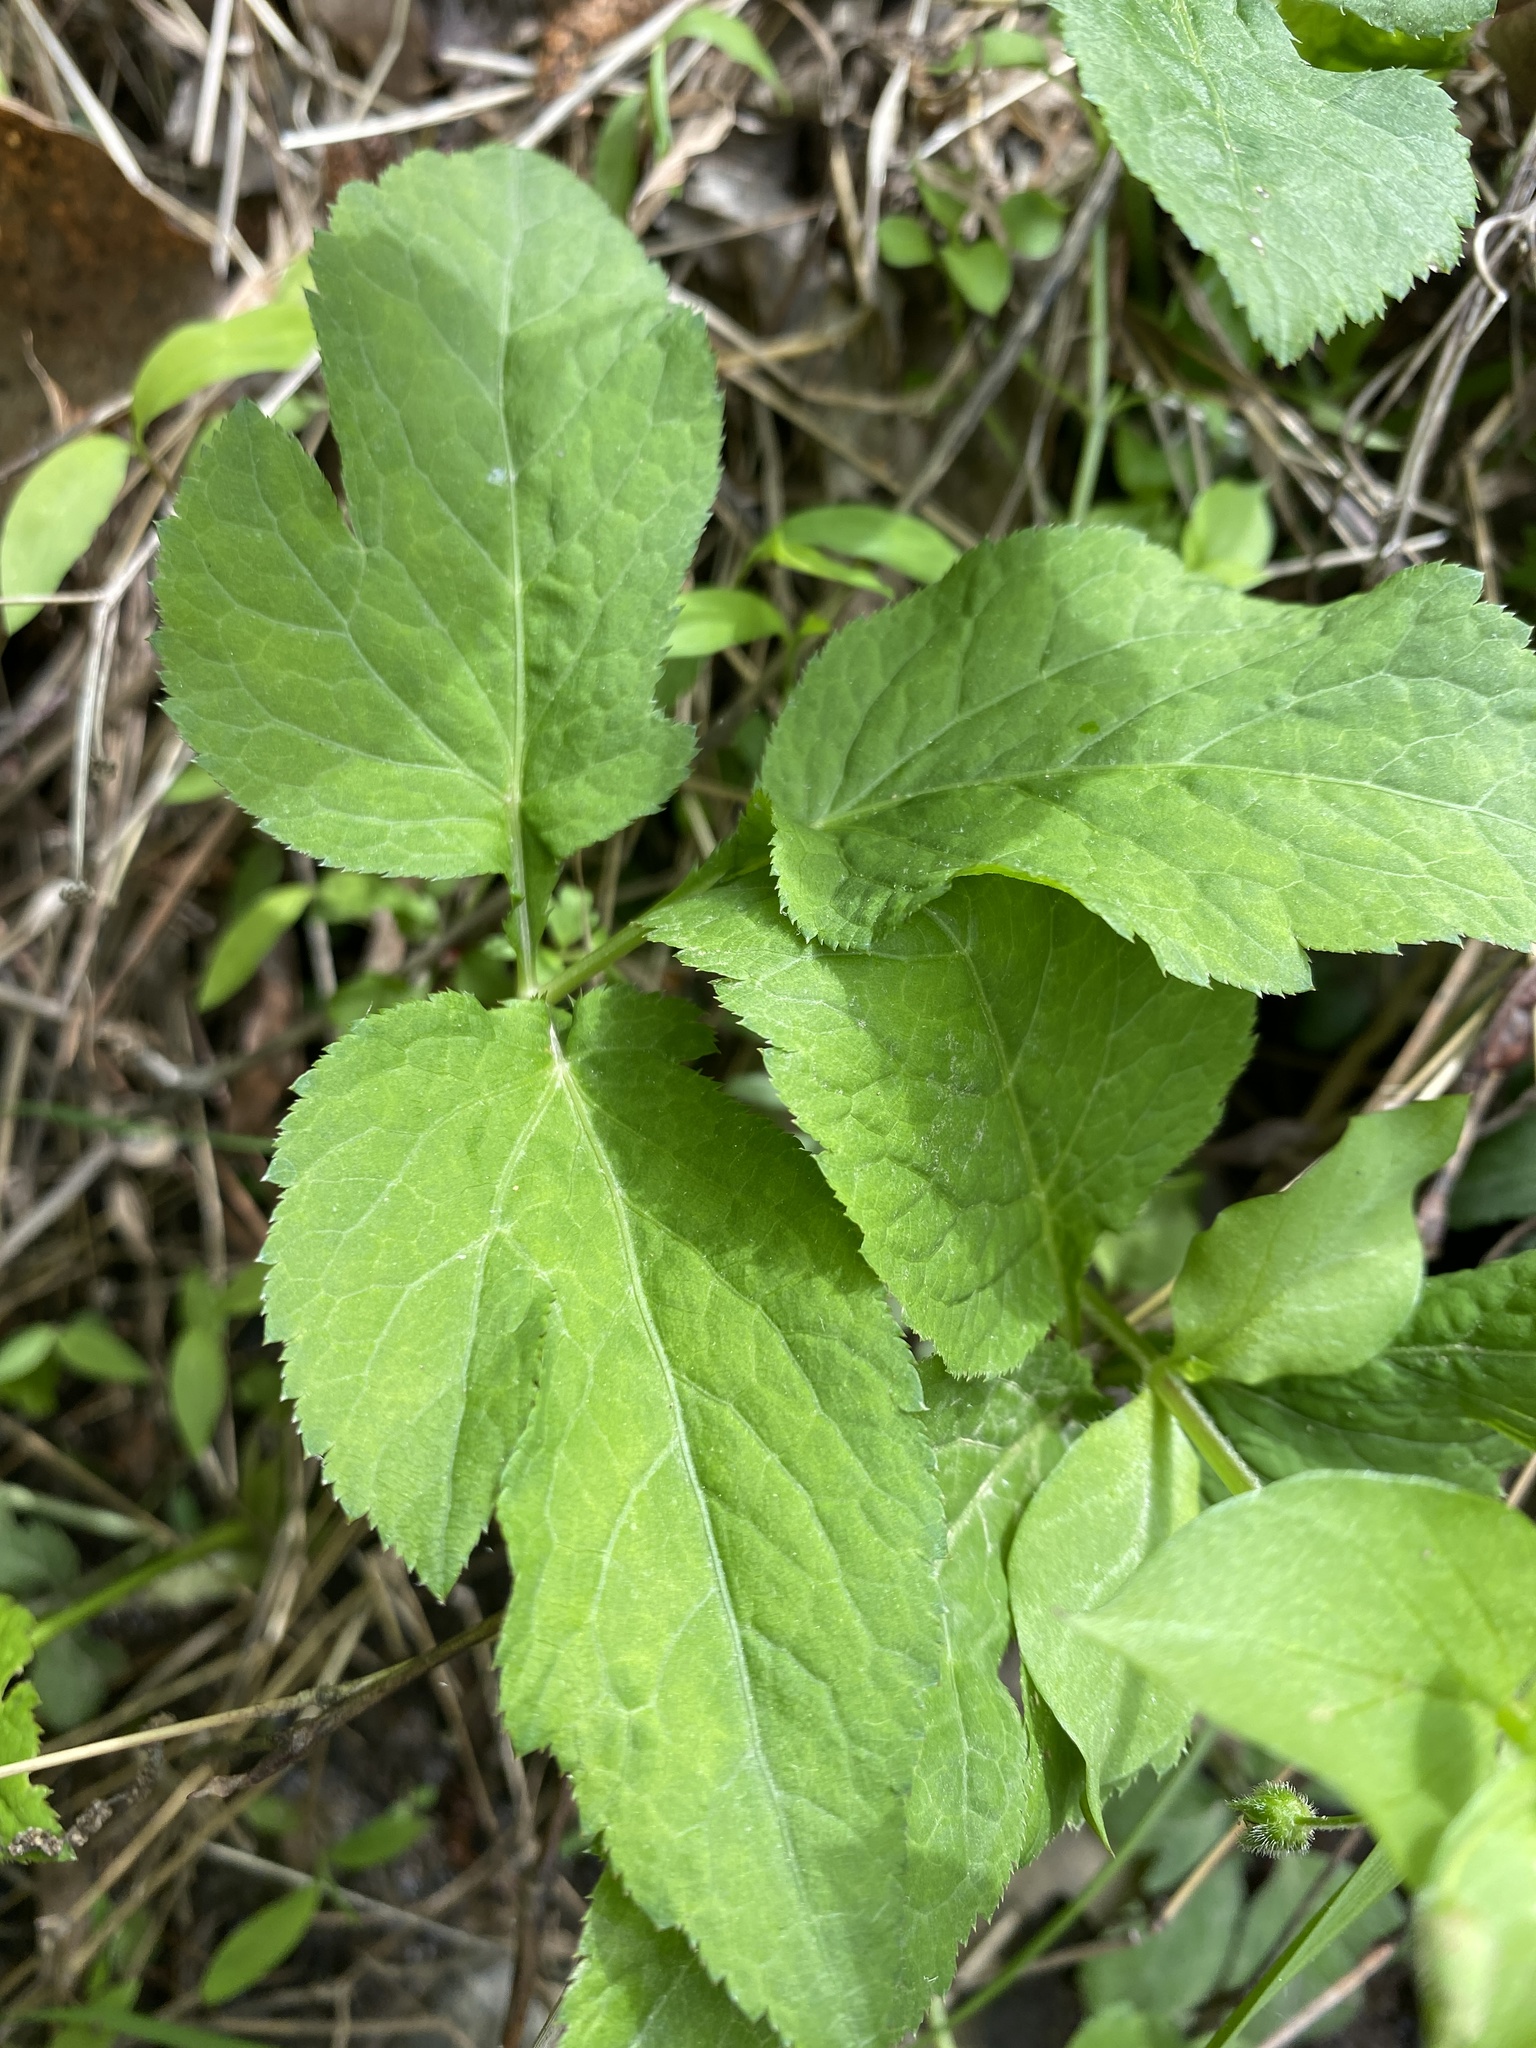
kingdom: Plantae
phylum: Tracheophyta
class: Magnoliopsida
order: Apiales
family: Apiaceae
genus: Cryptotaenia
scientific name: Cryptotaenia canadensis
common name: Honewort
